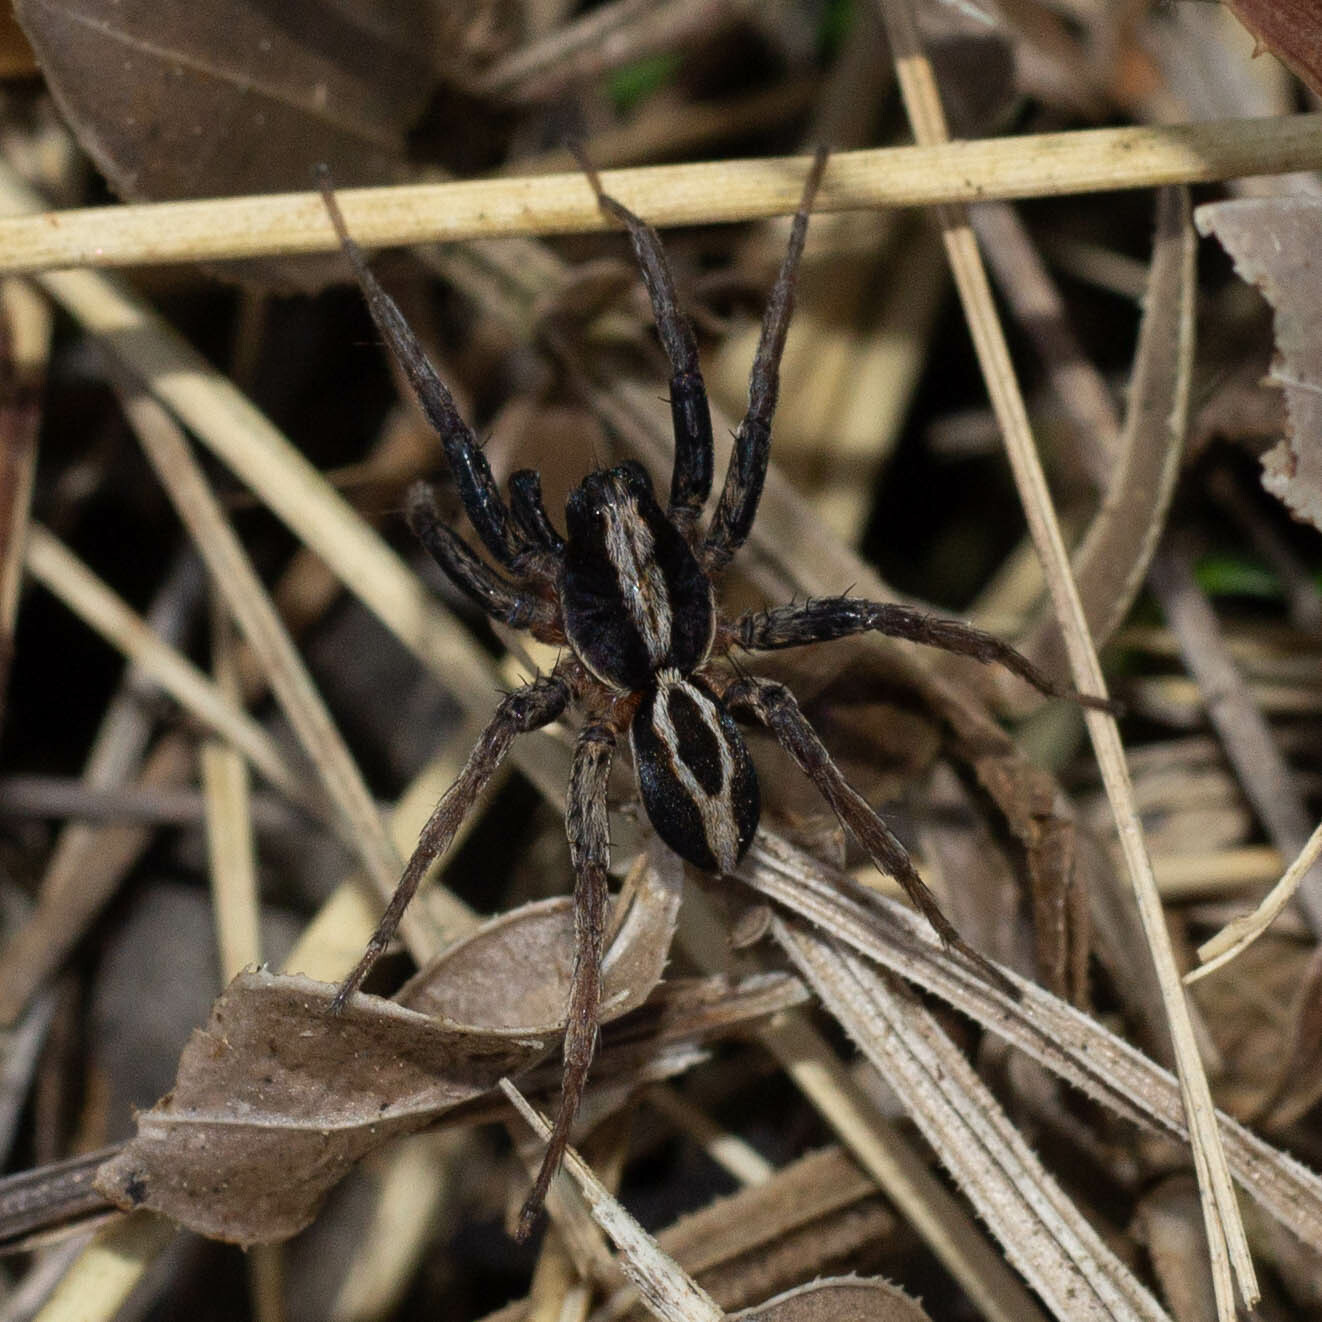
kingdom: Animalia
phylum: Arthropoda
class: Arachnida
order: Araneae
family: Lycosidae
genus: Alopecosa
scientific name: Alopecosa albofasciata
